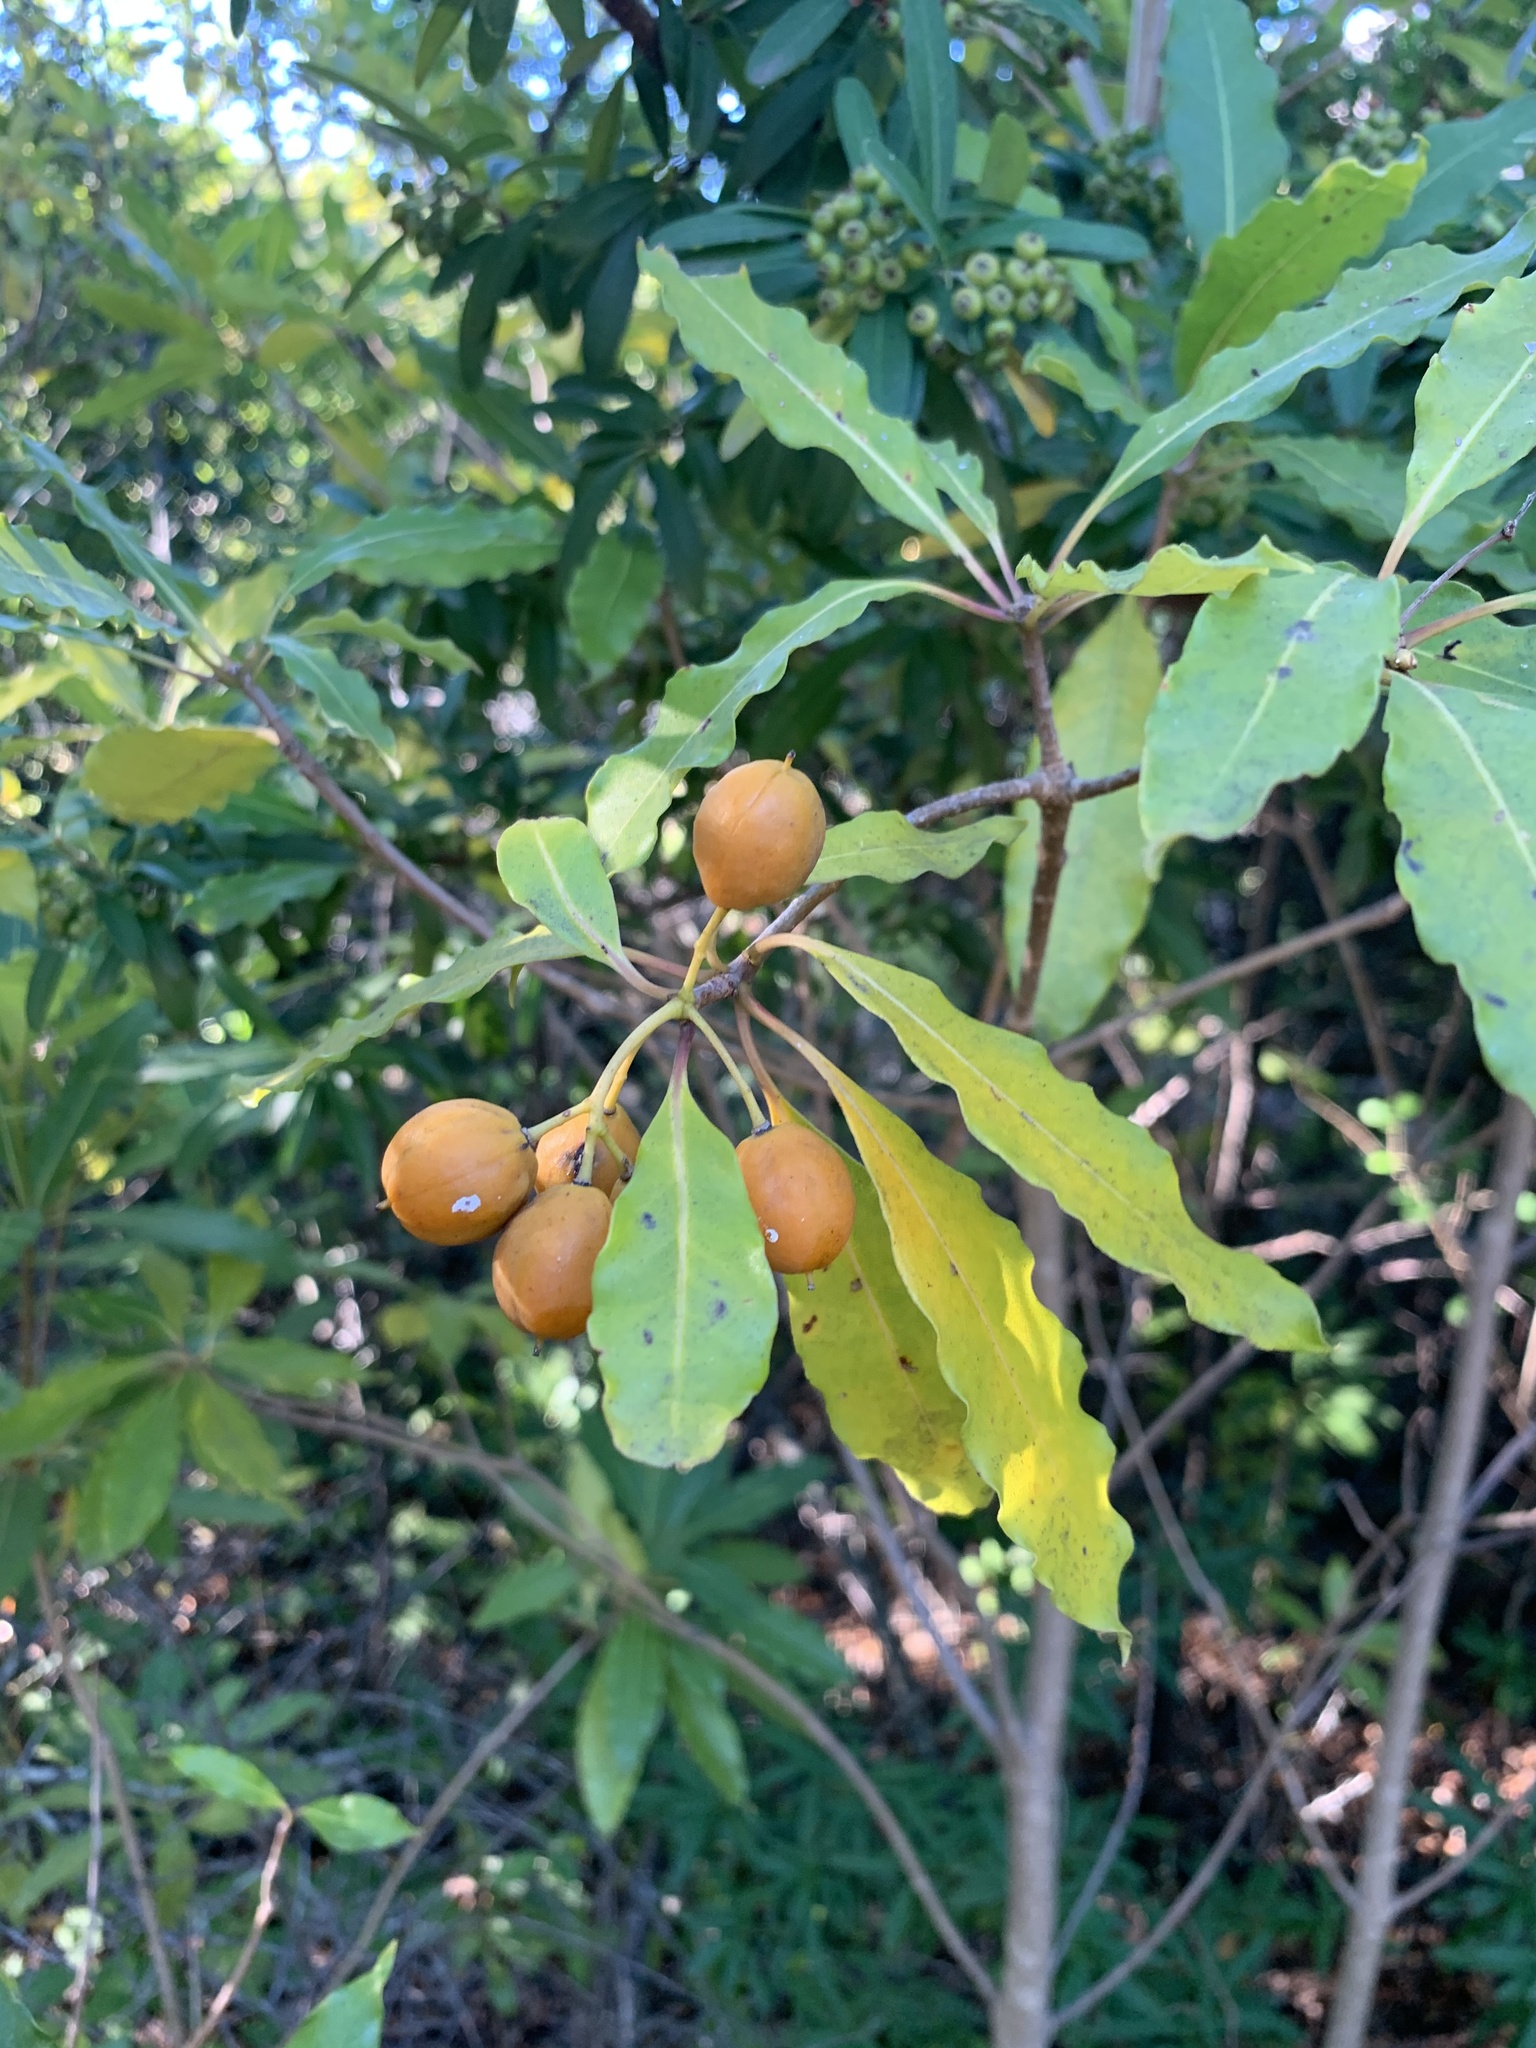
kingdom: Plantae
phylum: Tracheophyta
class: Magnoliopsida
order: Apiales
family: Pittosporaceae
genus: Pittosporum
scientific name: Pittosporum undulatum
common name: Australian cheesewood
